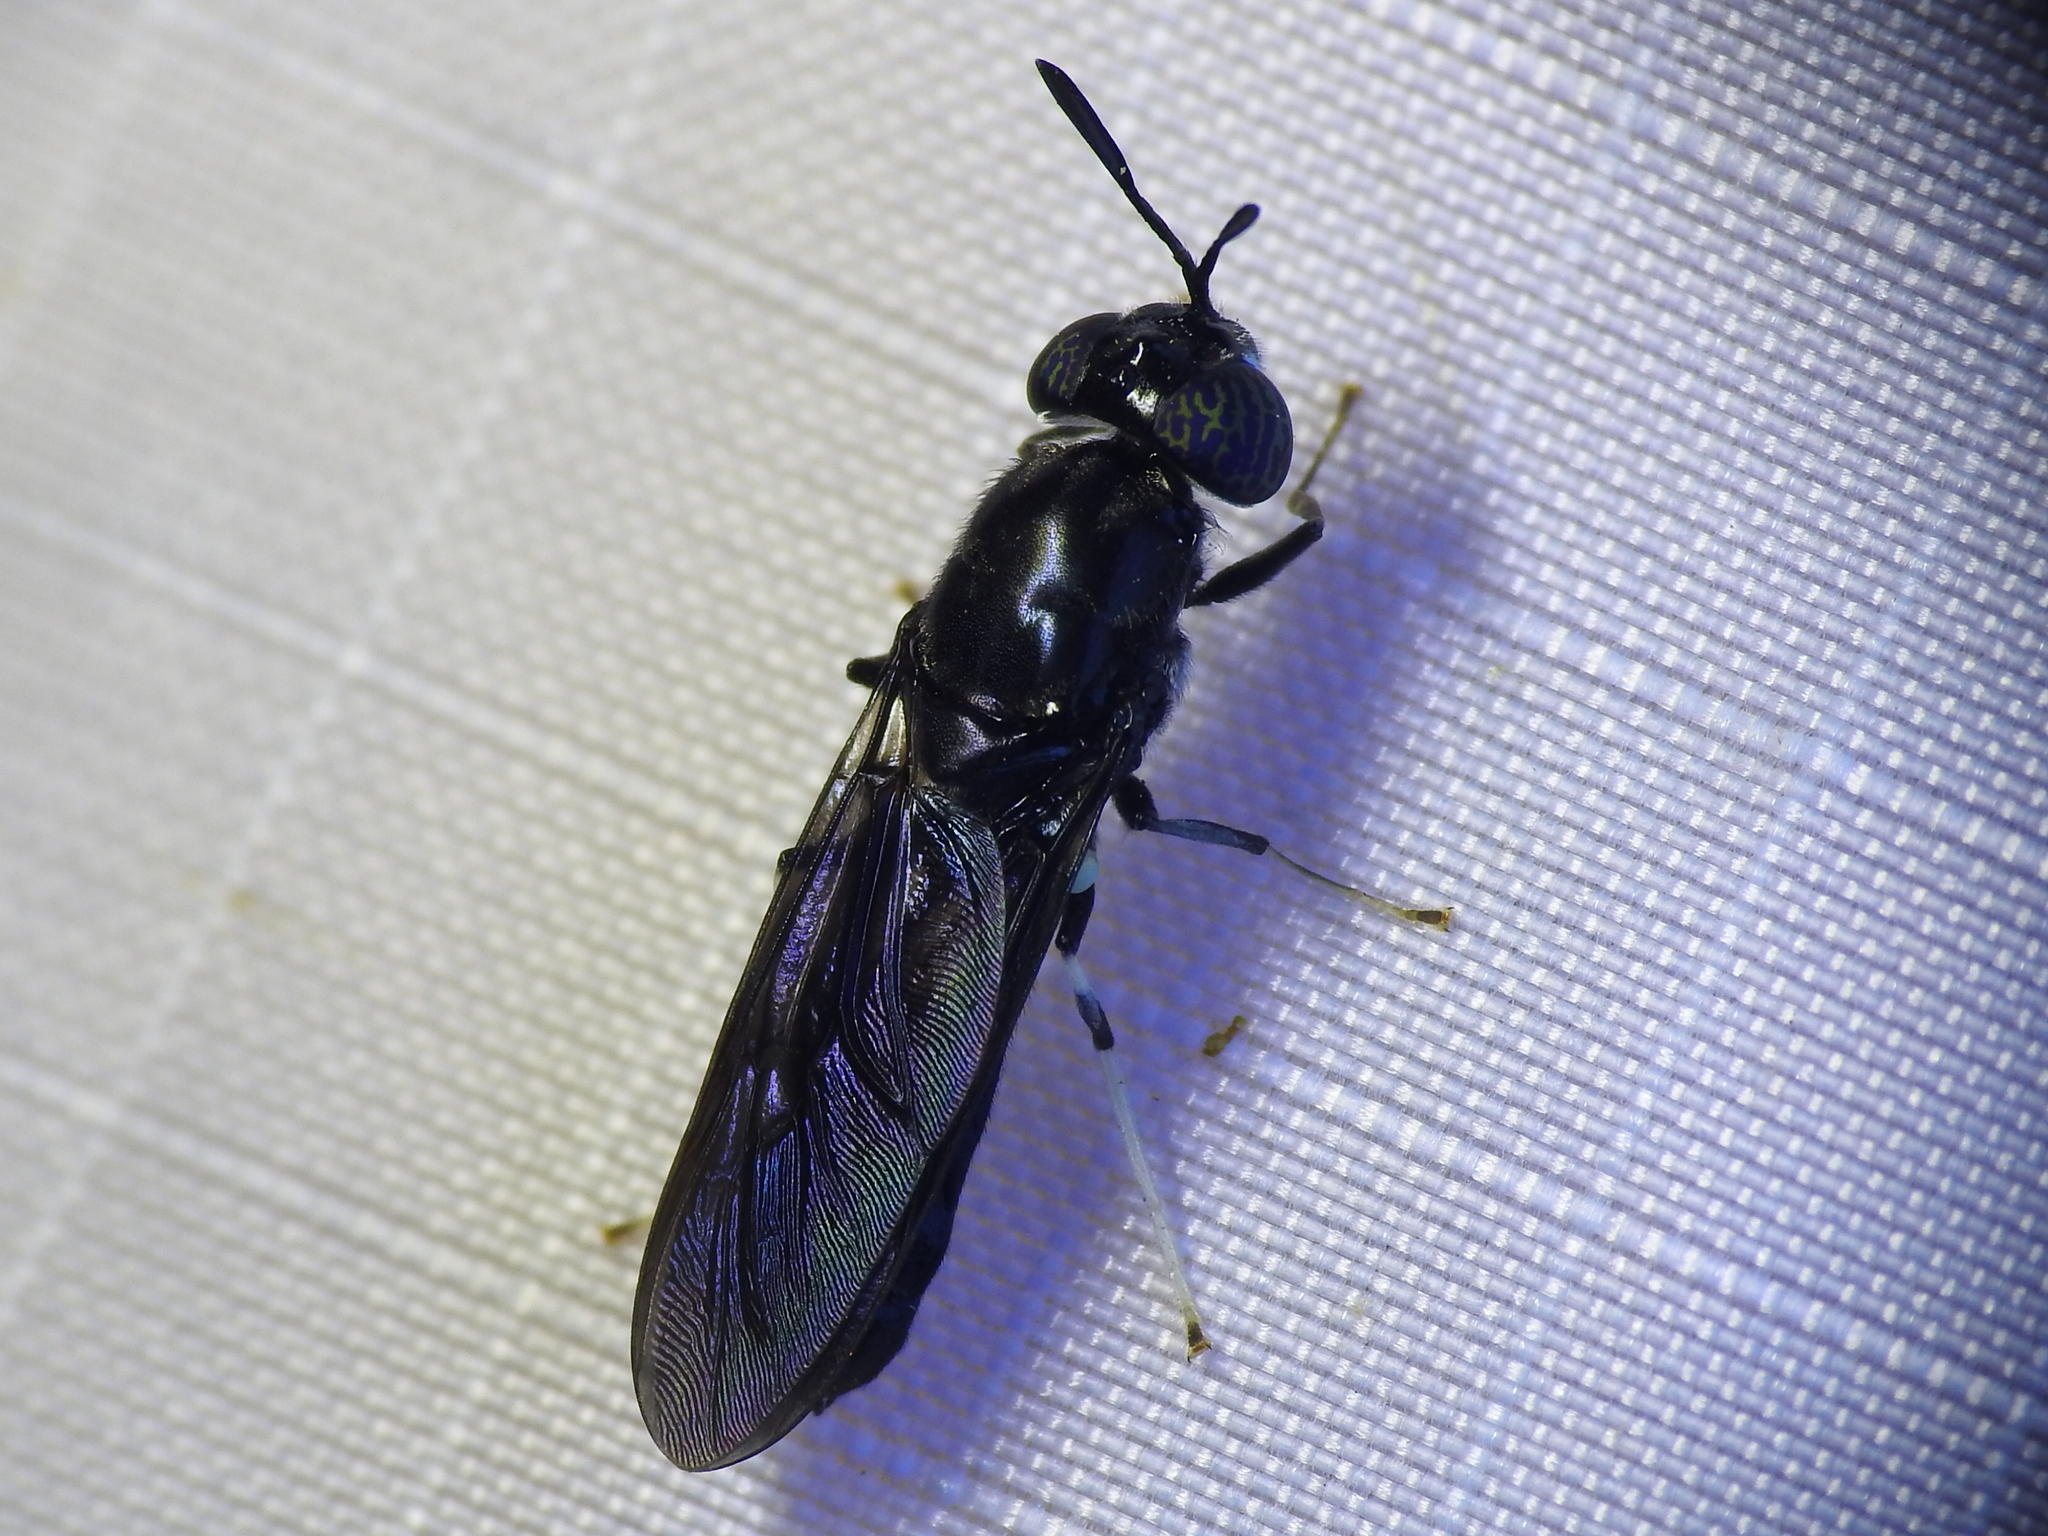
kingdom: Animalia
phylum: Arthropoda
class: Insecta
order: Diptera
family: Stratiomyidae
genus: Hermetia
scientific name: Hermetia illucens
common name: Black soldier fly
